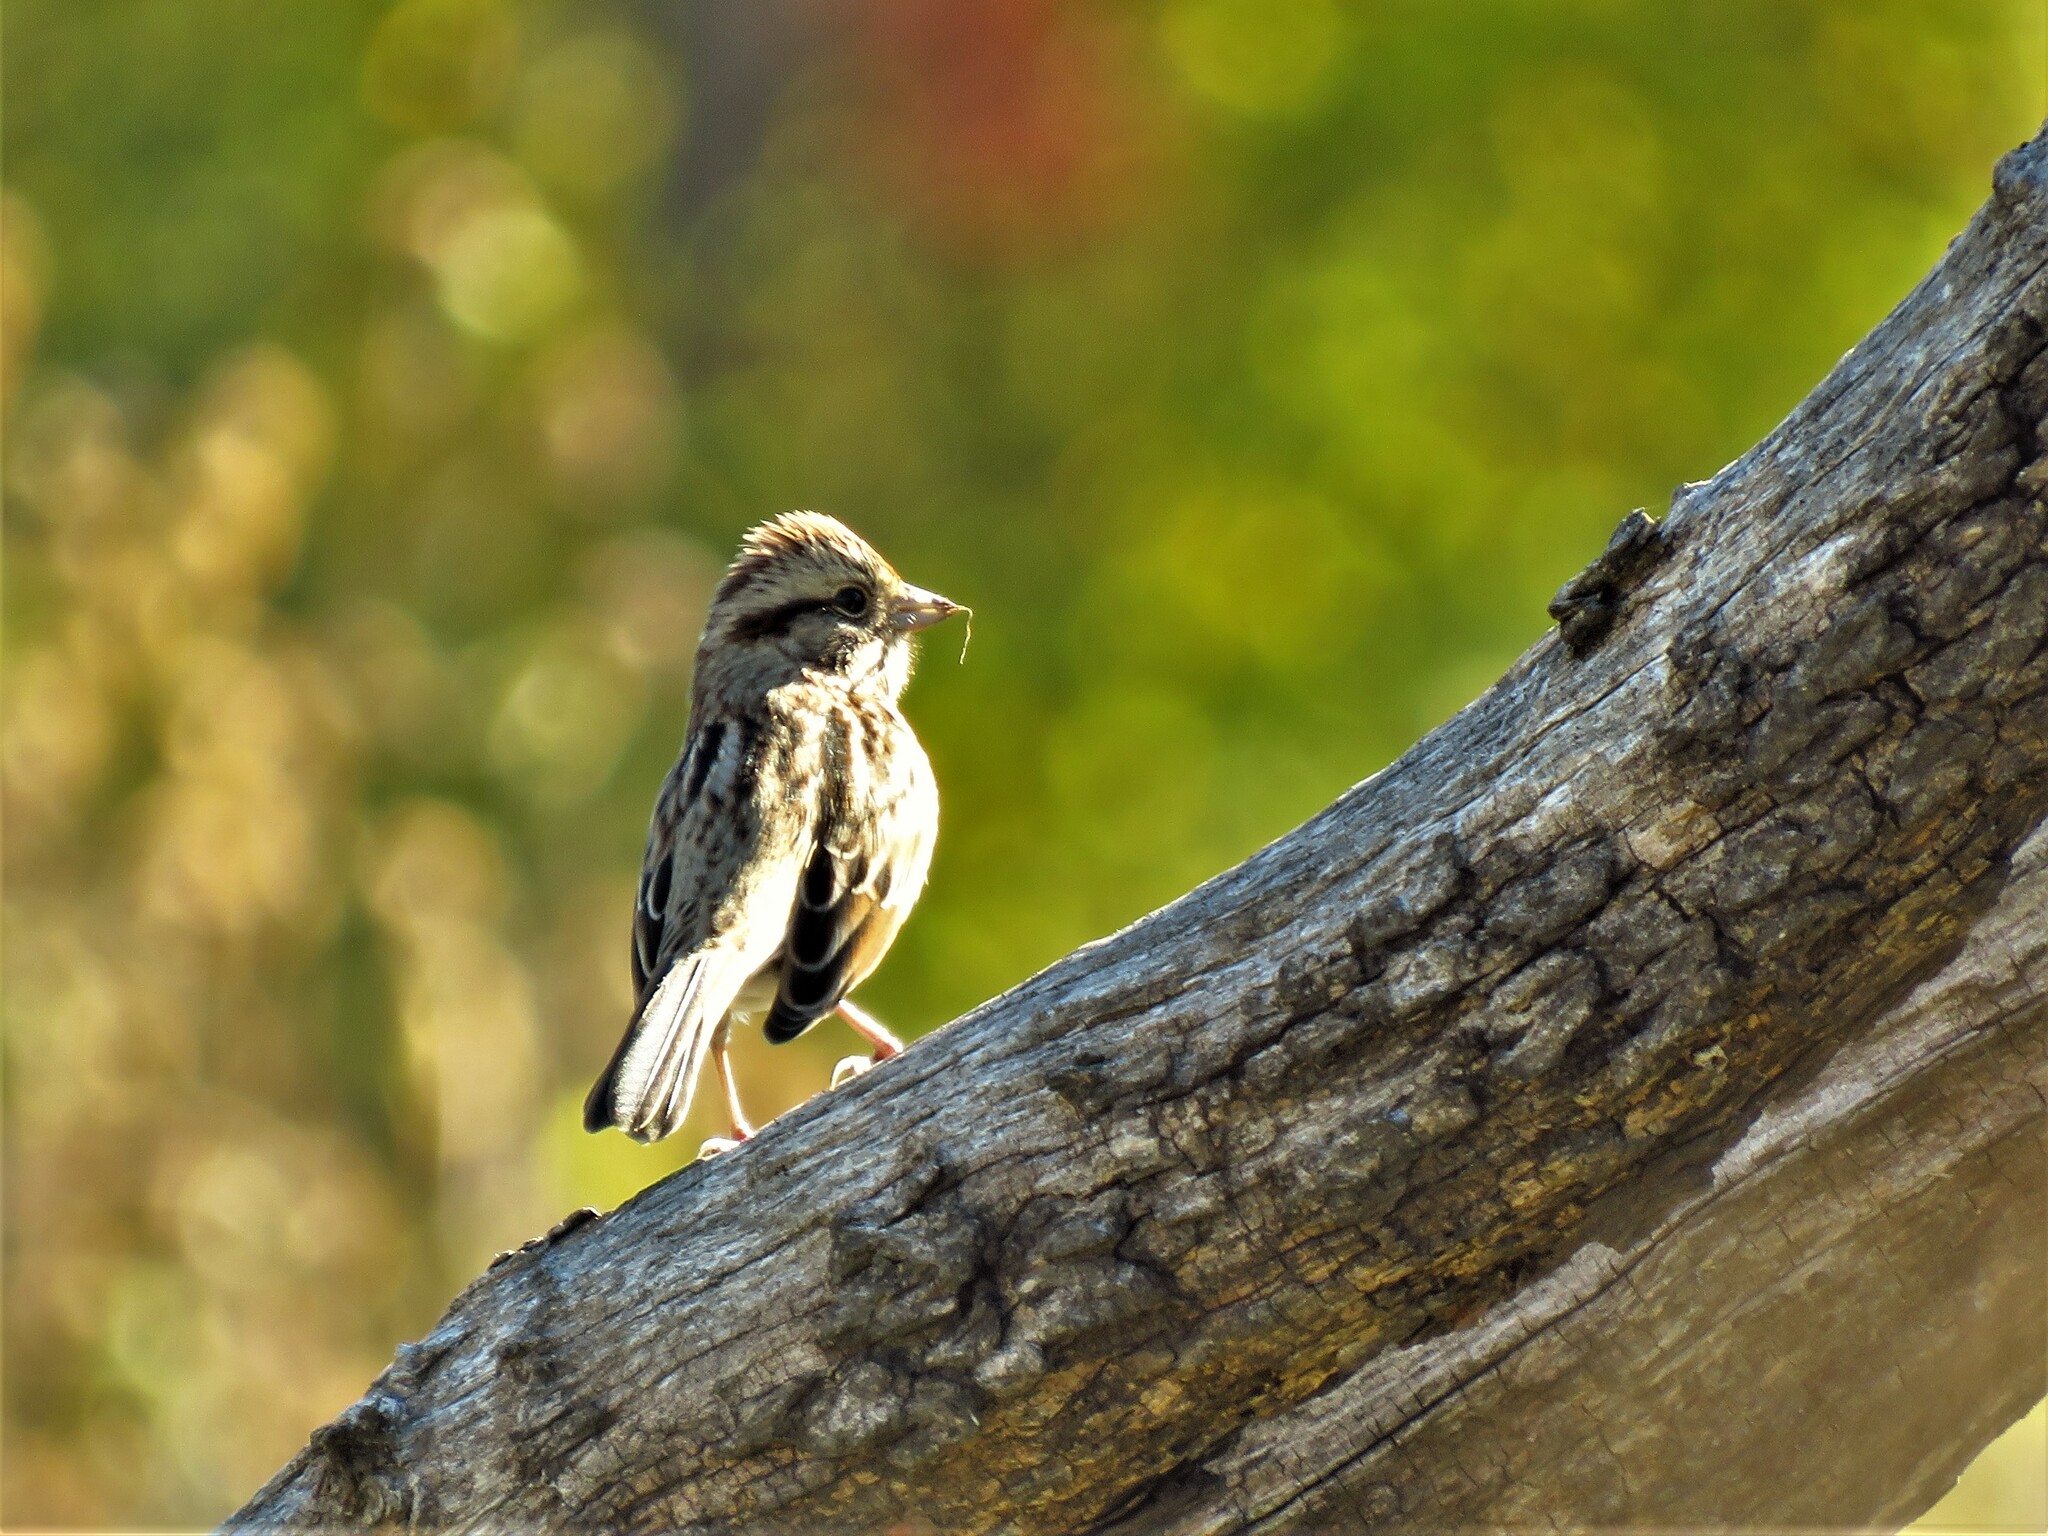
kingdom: Animalia
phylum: Chordata
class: Aves
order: Passeriformes
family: Passerellidae
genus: Melospiza
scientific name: Melospiza melodia
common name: Song sparrow
